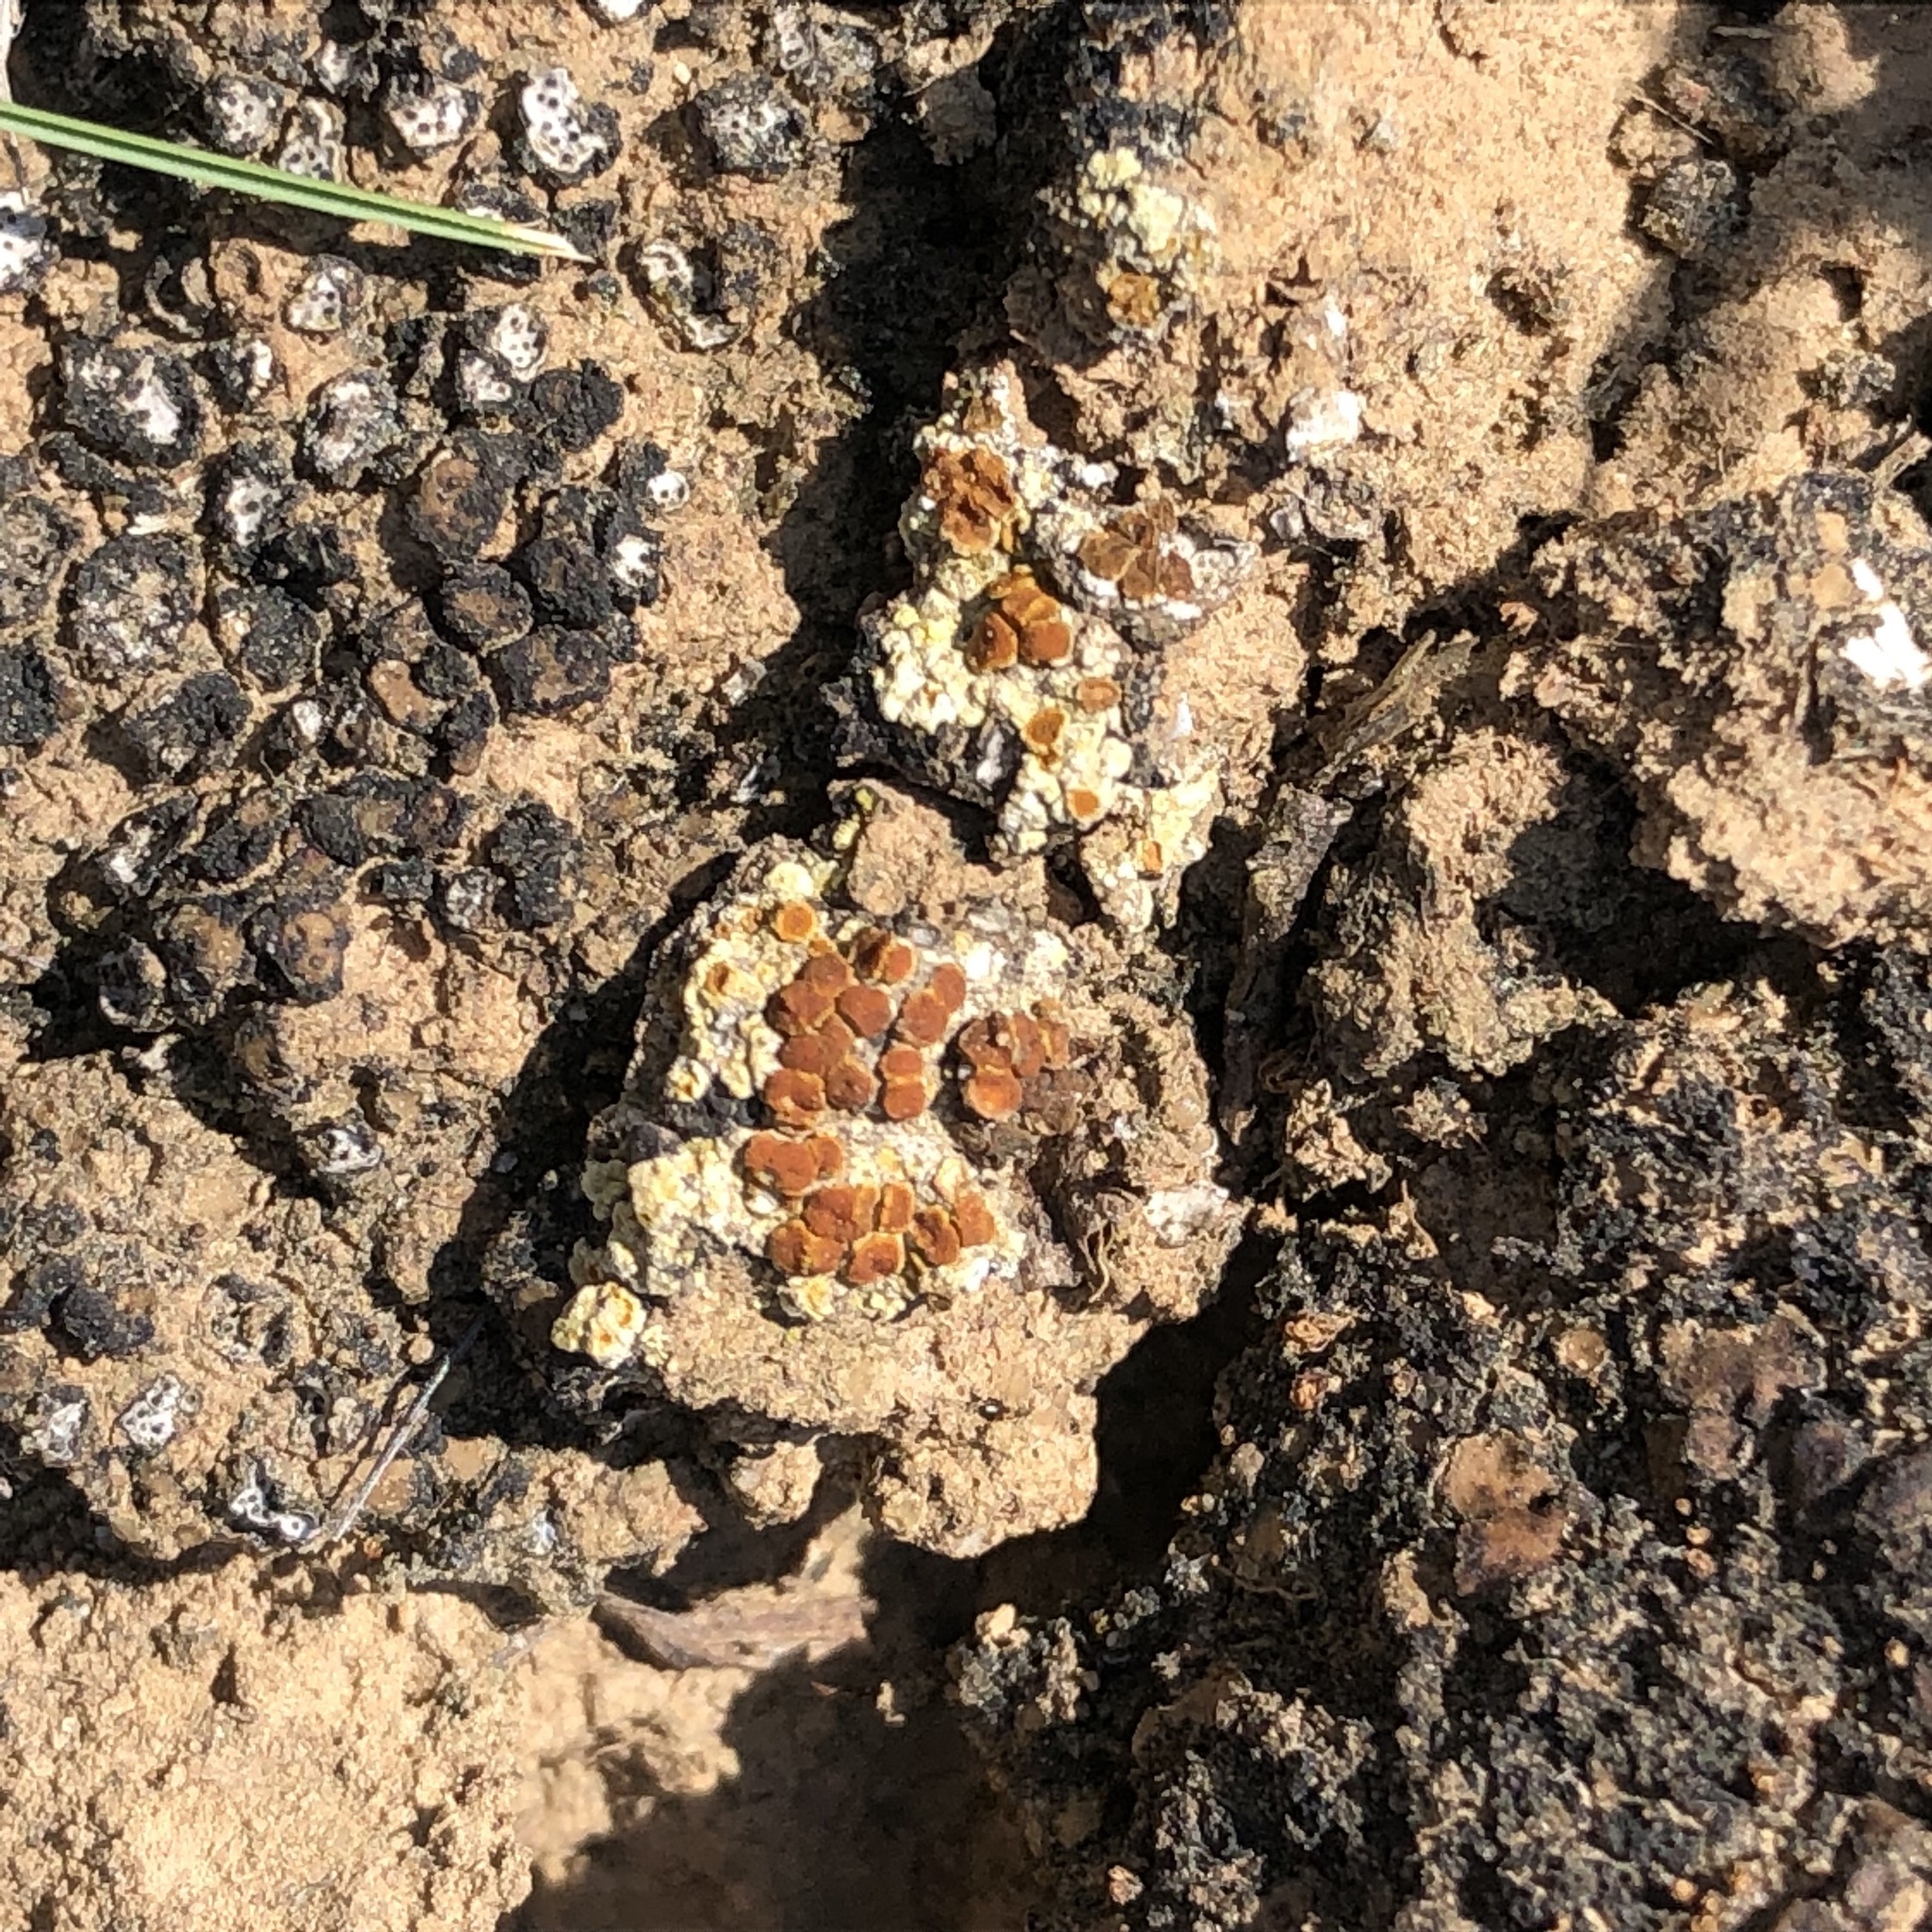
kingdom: Fungi
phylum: Ascomycota
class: Lecanoromycetes
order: Teloschistales
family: Teloschistaceae
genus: Gyalolechia
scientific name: Gyalolechia desertorum
